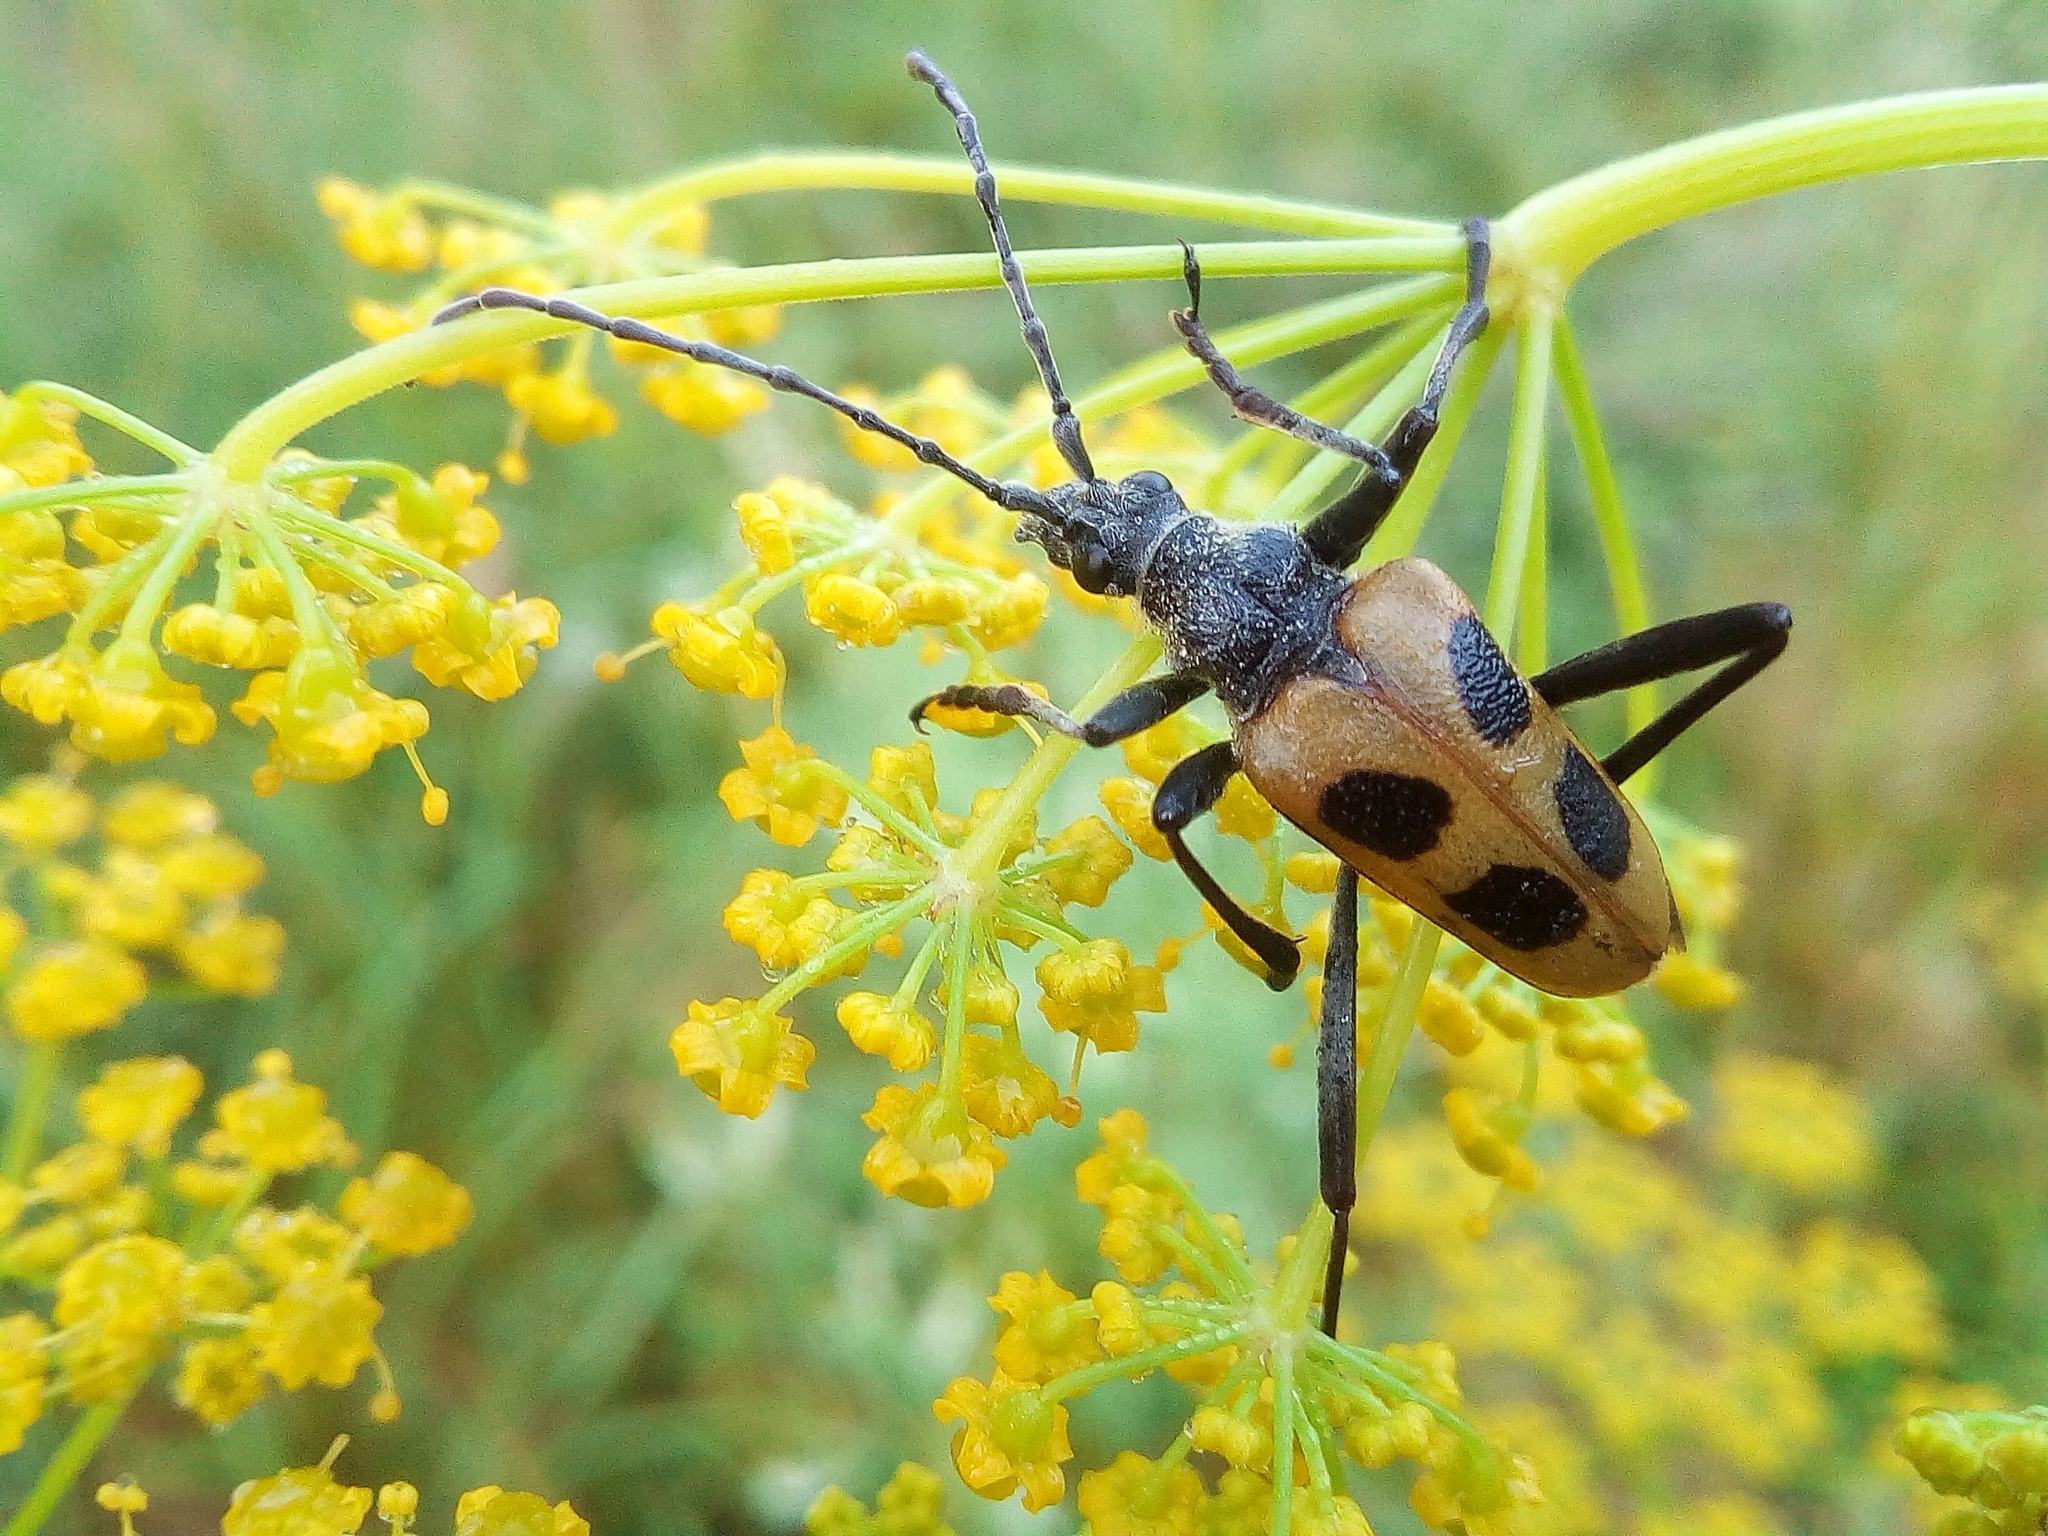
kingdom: Animalia
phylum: Arthropoda
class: Insecta
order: Coleoptera
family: Cerambycidae
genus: Pachyta
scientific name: Pachyta quadrimaculata
